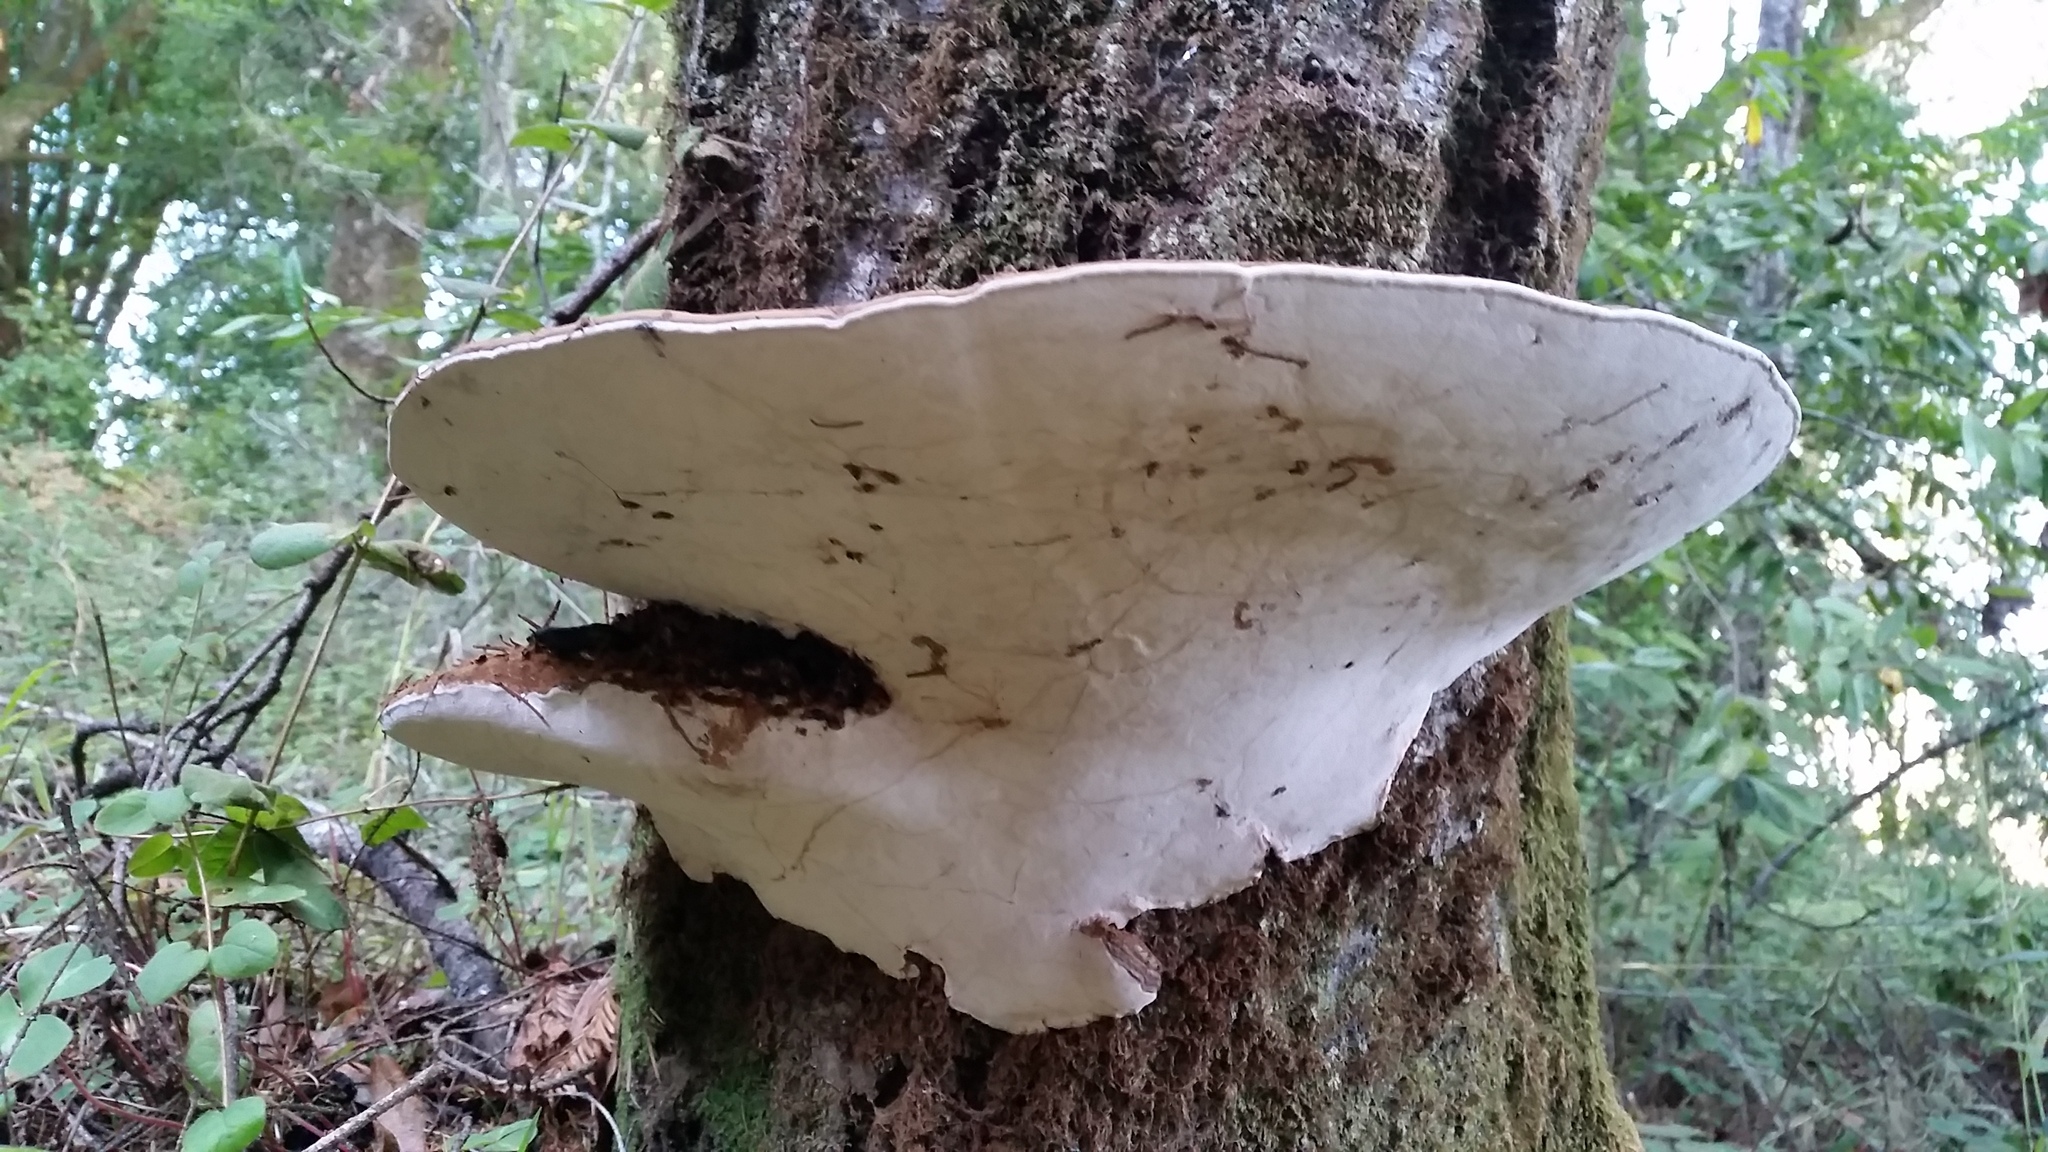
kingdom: Fungi
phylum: Basidiomycota
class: Agaricomycetes
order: Polyporales
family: Polyporaceae
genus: Ganoderma
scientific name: Ganoderma brownii
